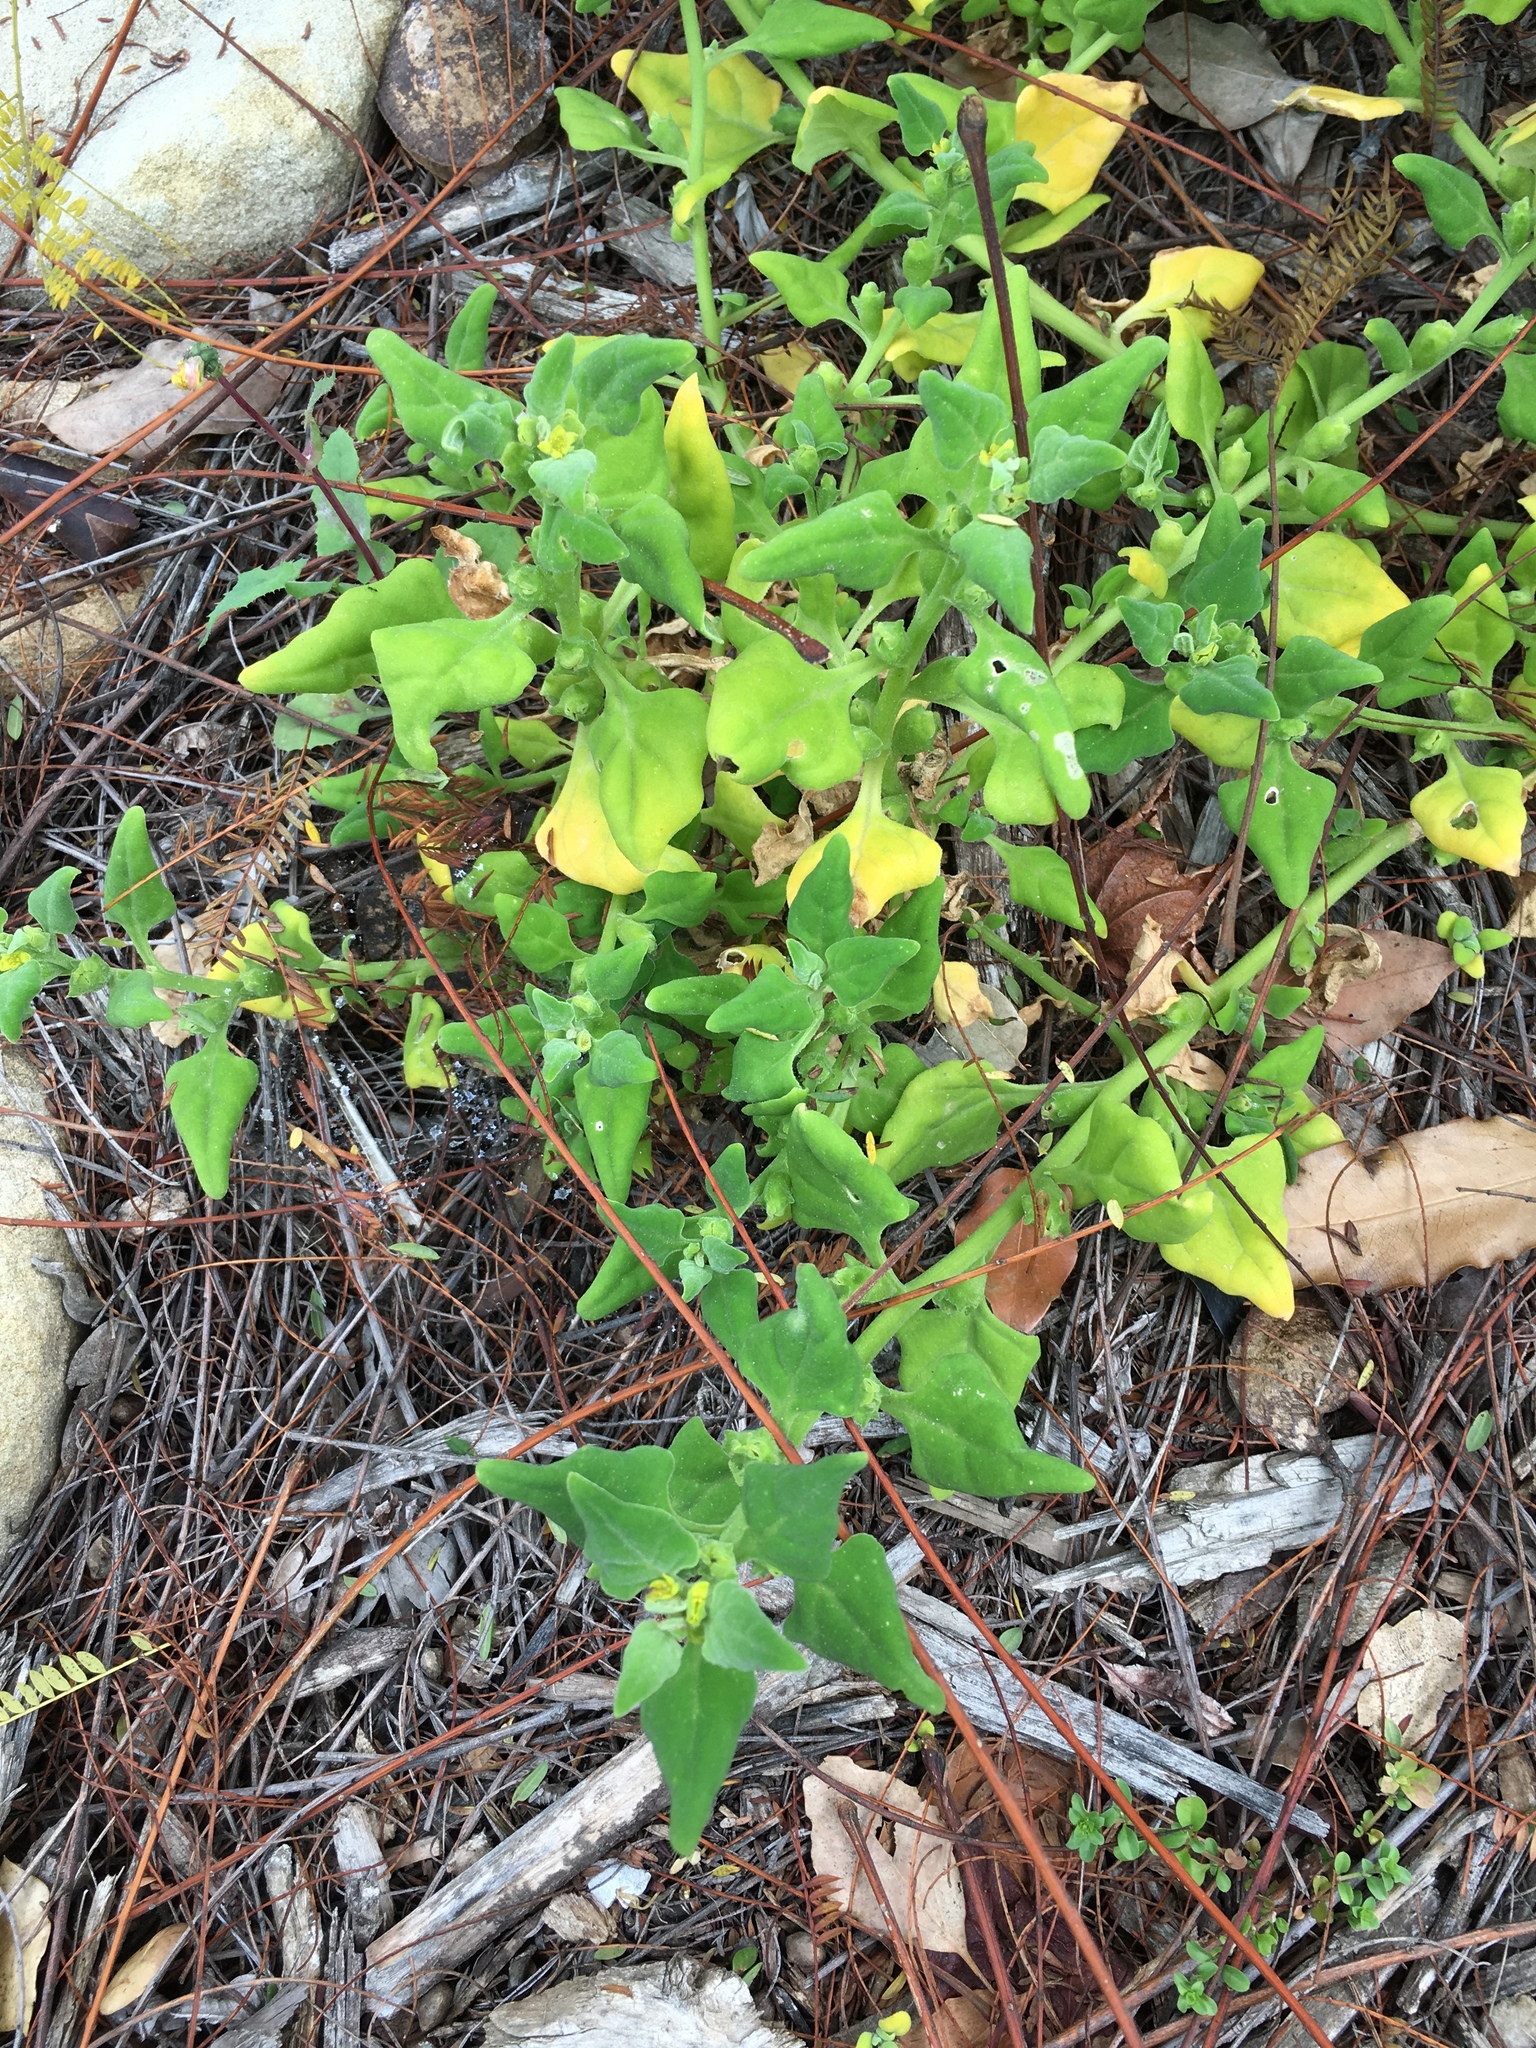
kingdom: Plantae
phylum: Tracheophyta
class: Magnoliopsida
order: Caryophyllales
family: Aizoaceae
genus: Tetragonia
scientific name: Tetragonia tetragonoides
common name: New zealand-spinach
